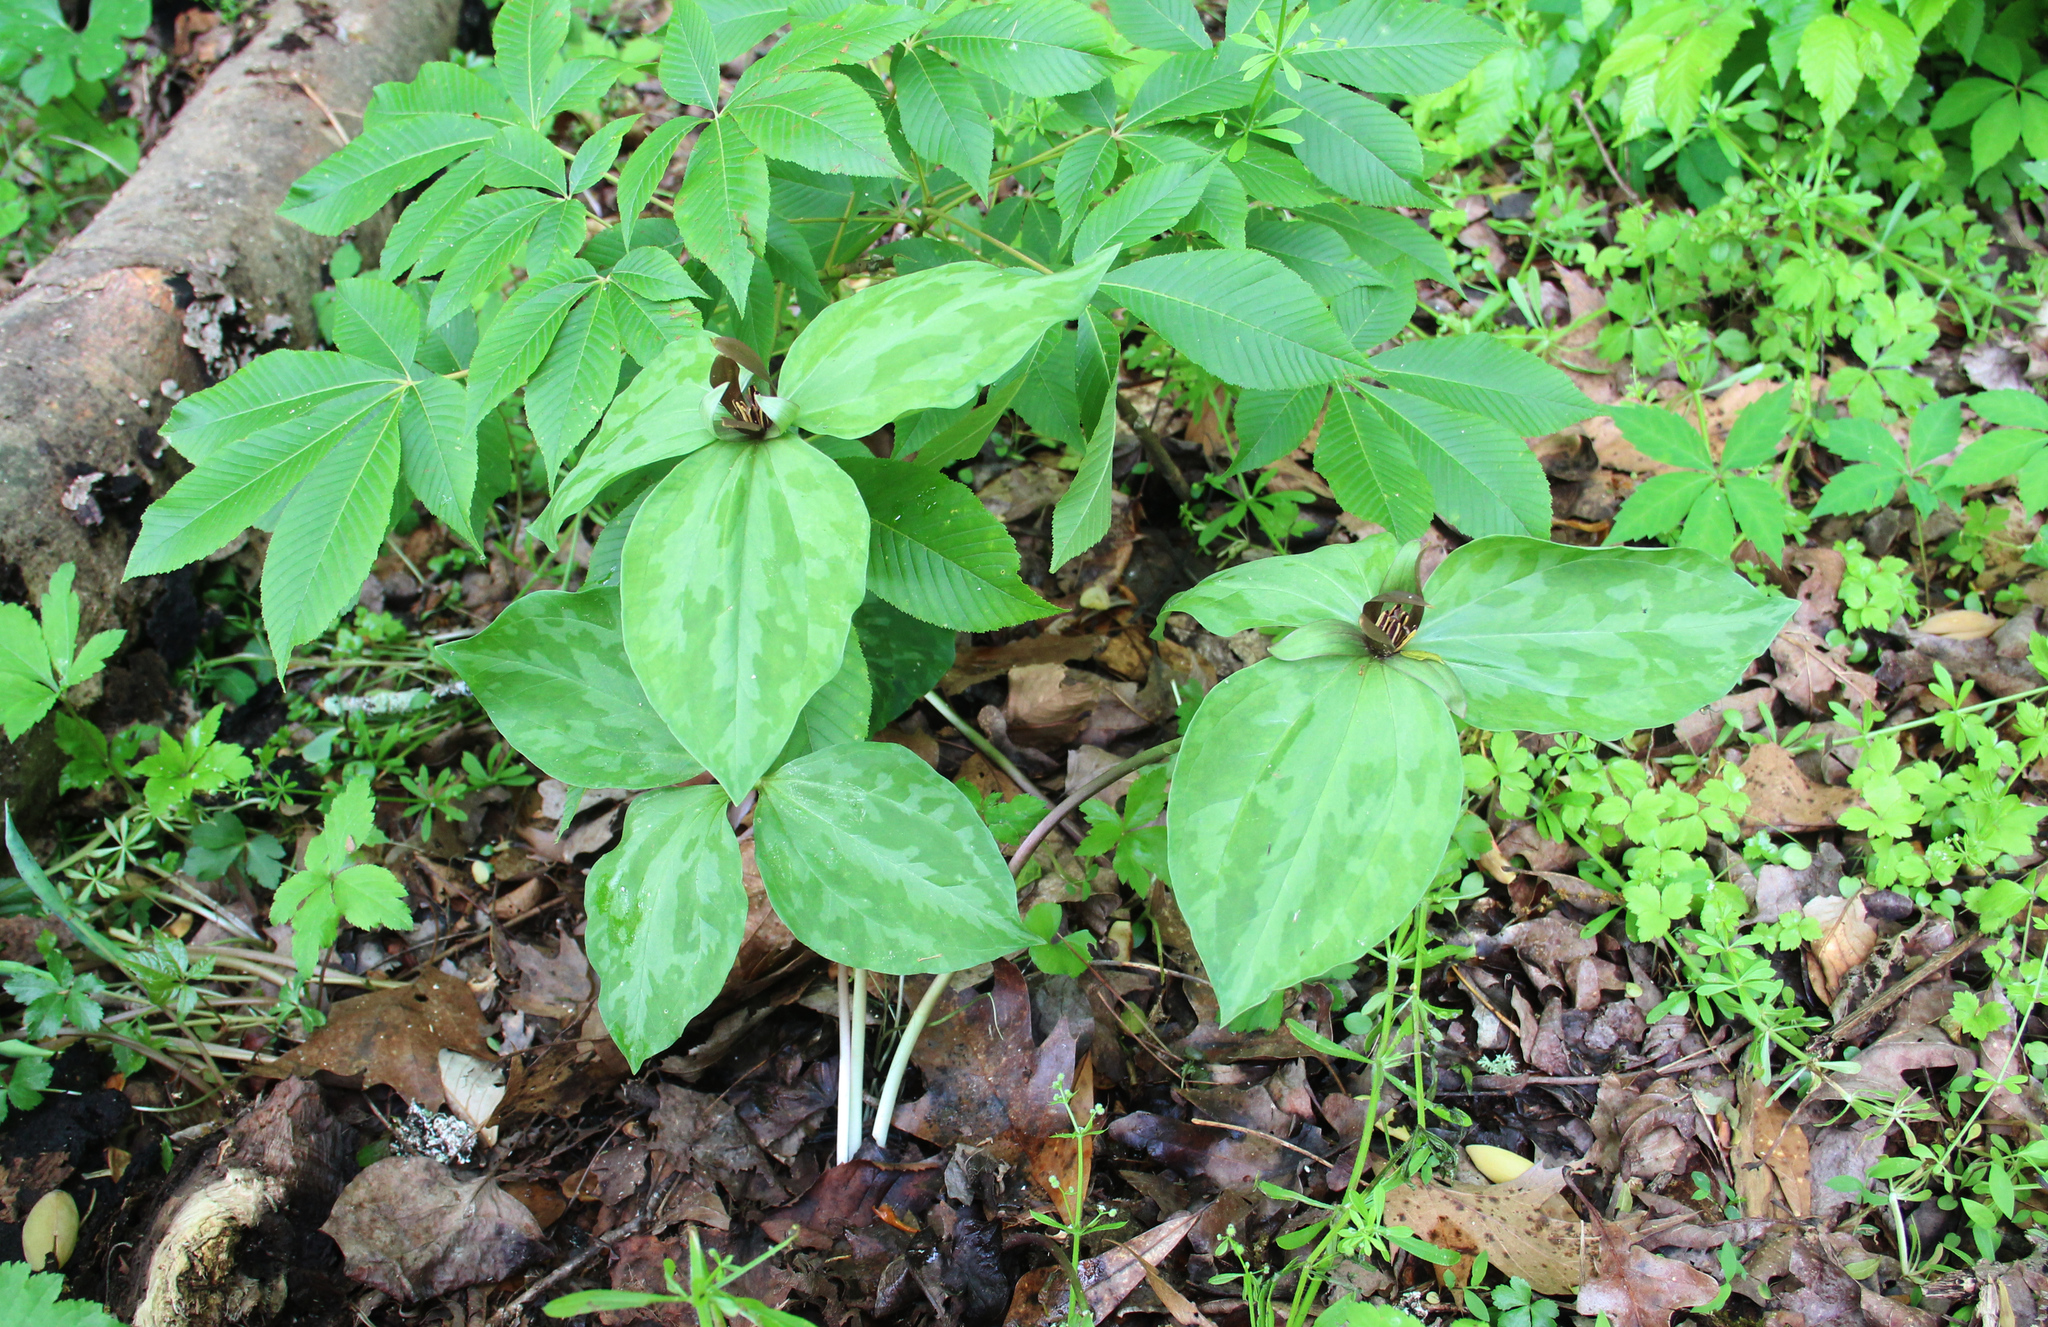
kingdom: Plantae
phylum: Tracheophyta
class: Liliopsida
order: Liliales
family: Melanthiaceae
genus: Trillium
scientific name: Trillium cuneatum
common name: Cuneate trillium
